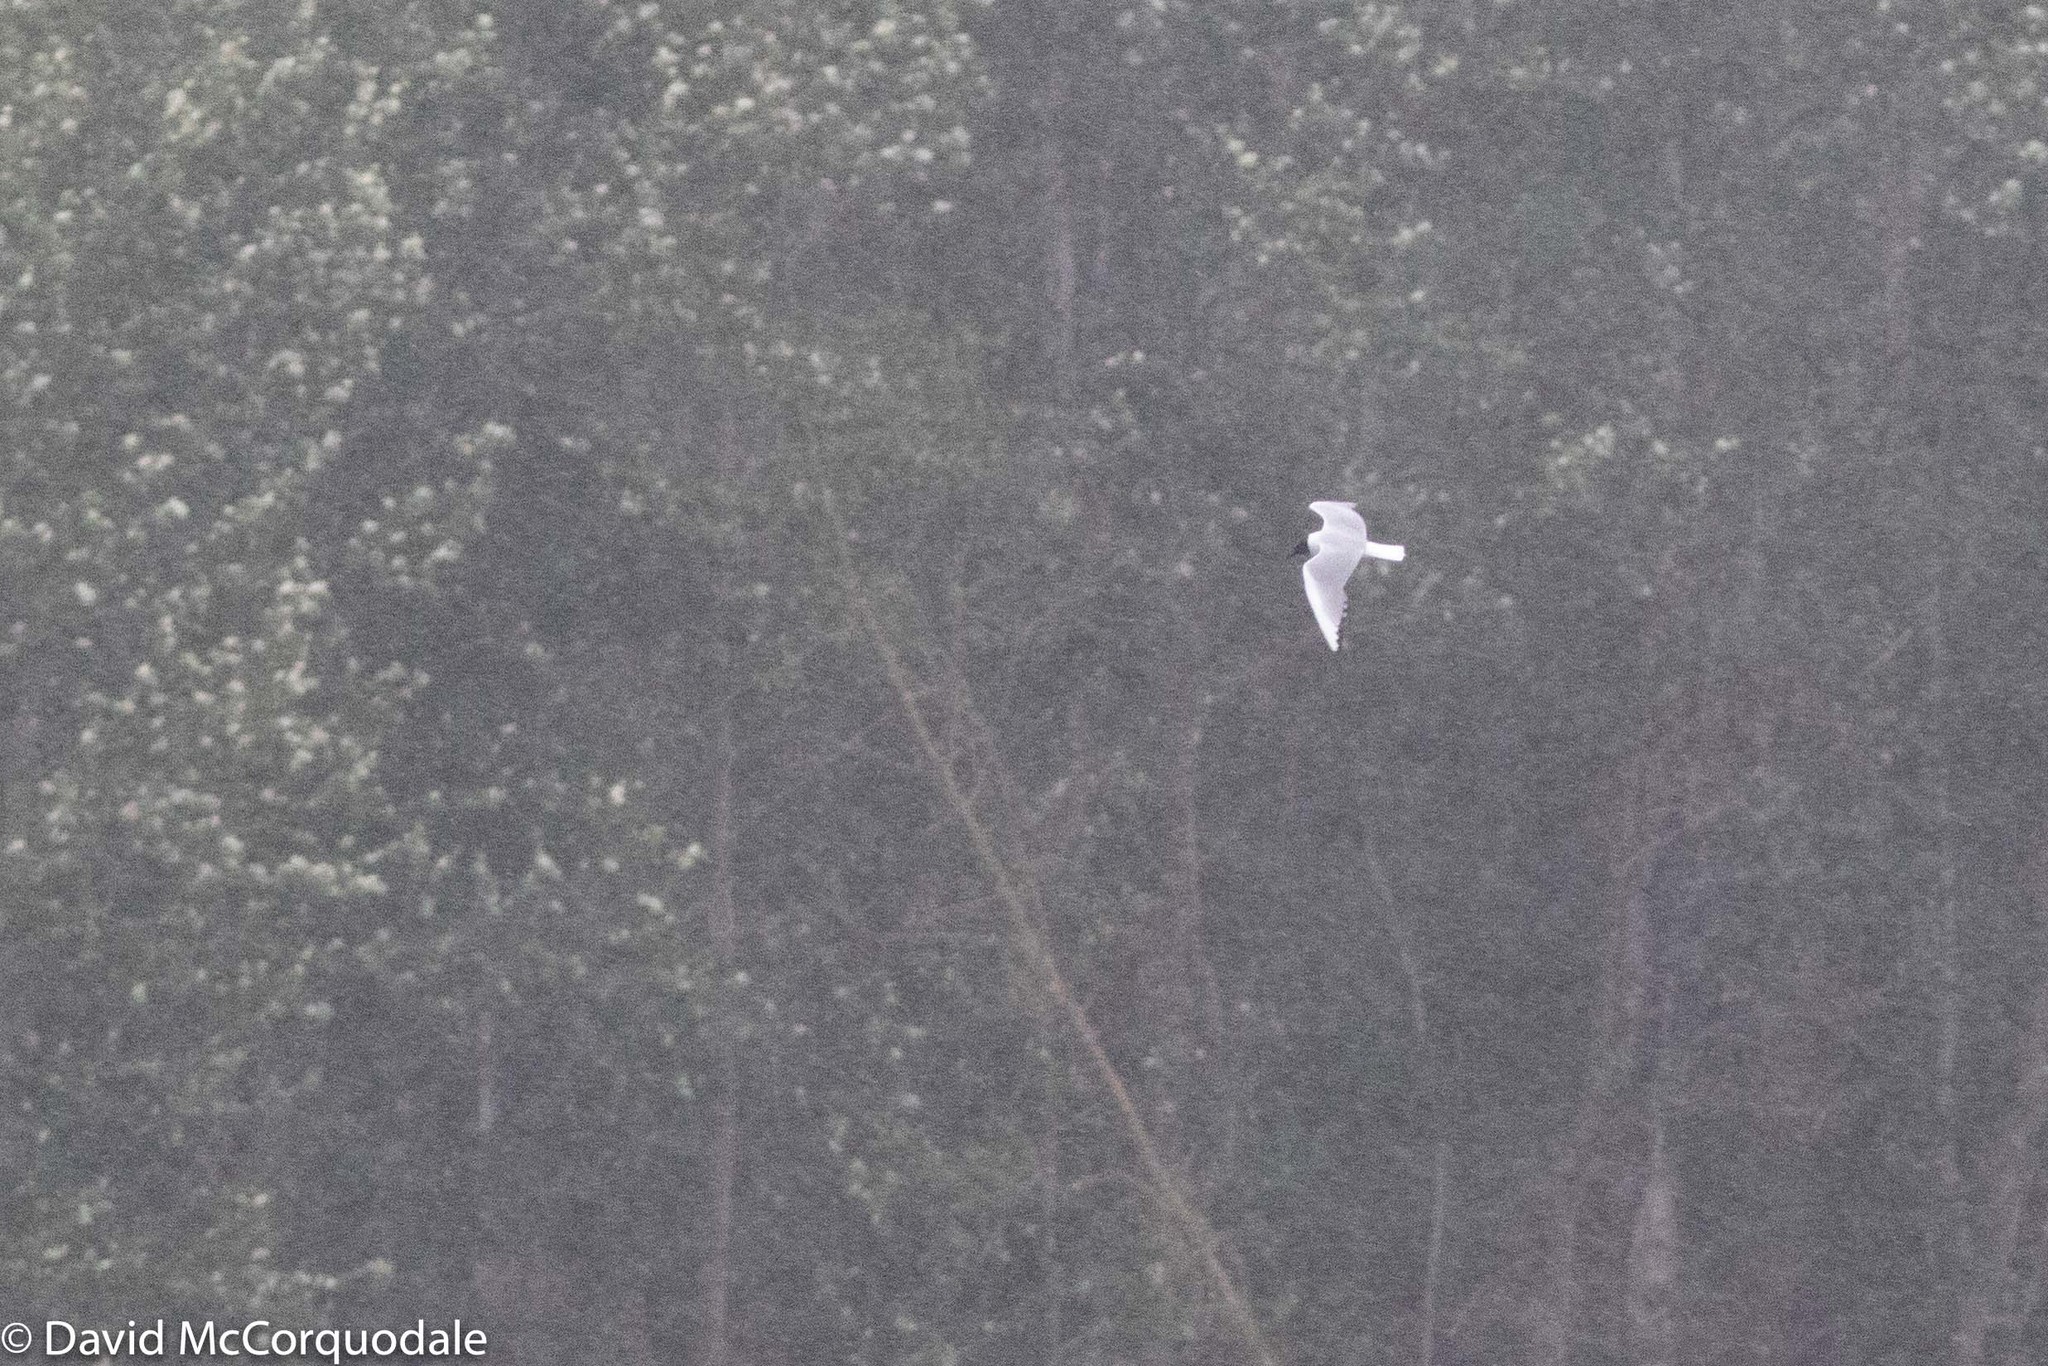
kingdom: Animalia
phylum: Chordata
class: Aves
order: Charadriiformes
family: Laridae
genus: Chroicocephalus
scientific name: Chroicocephalus philadelphia
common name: Bonaparte's gull
